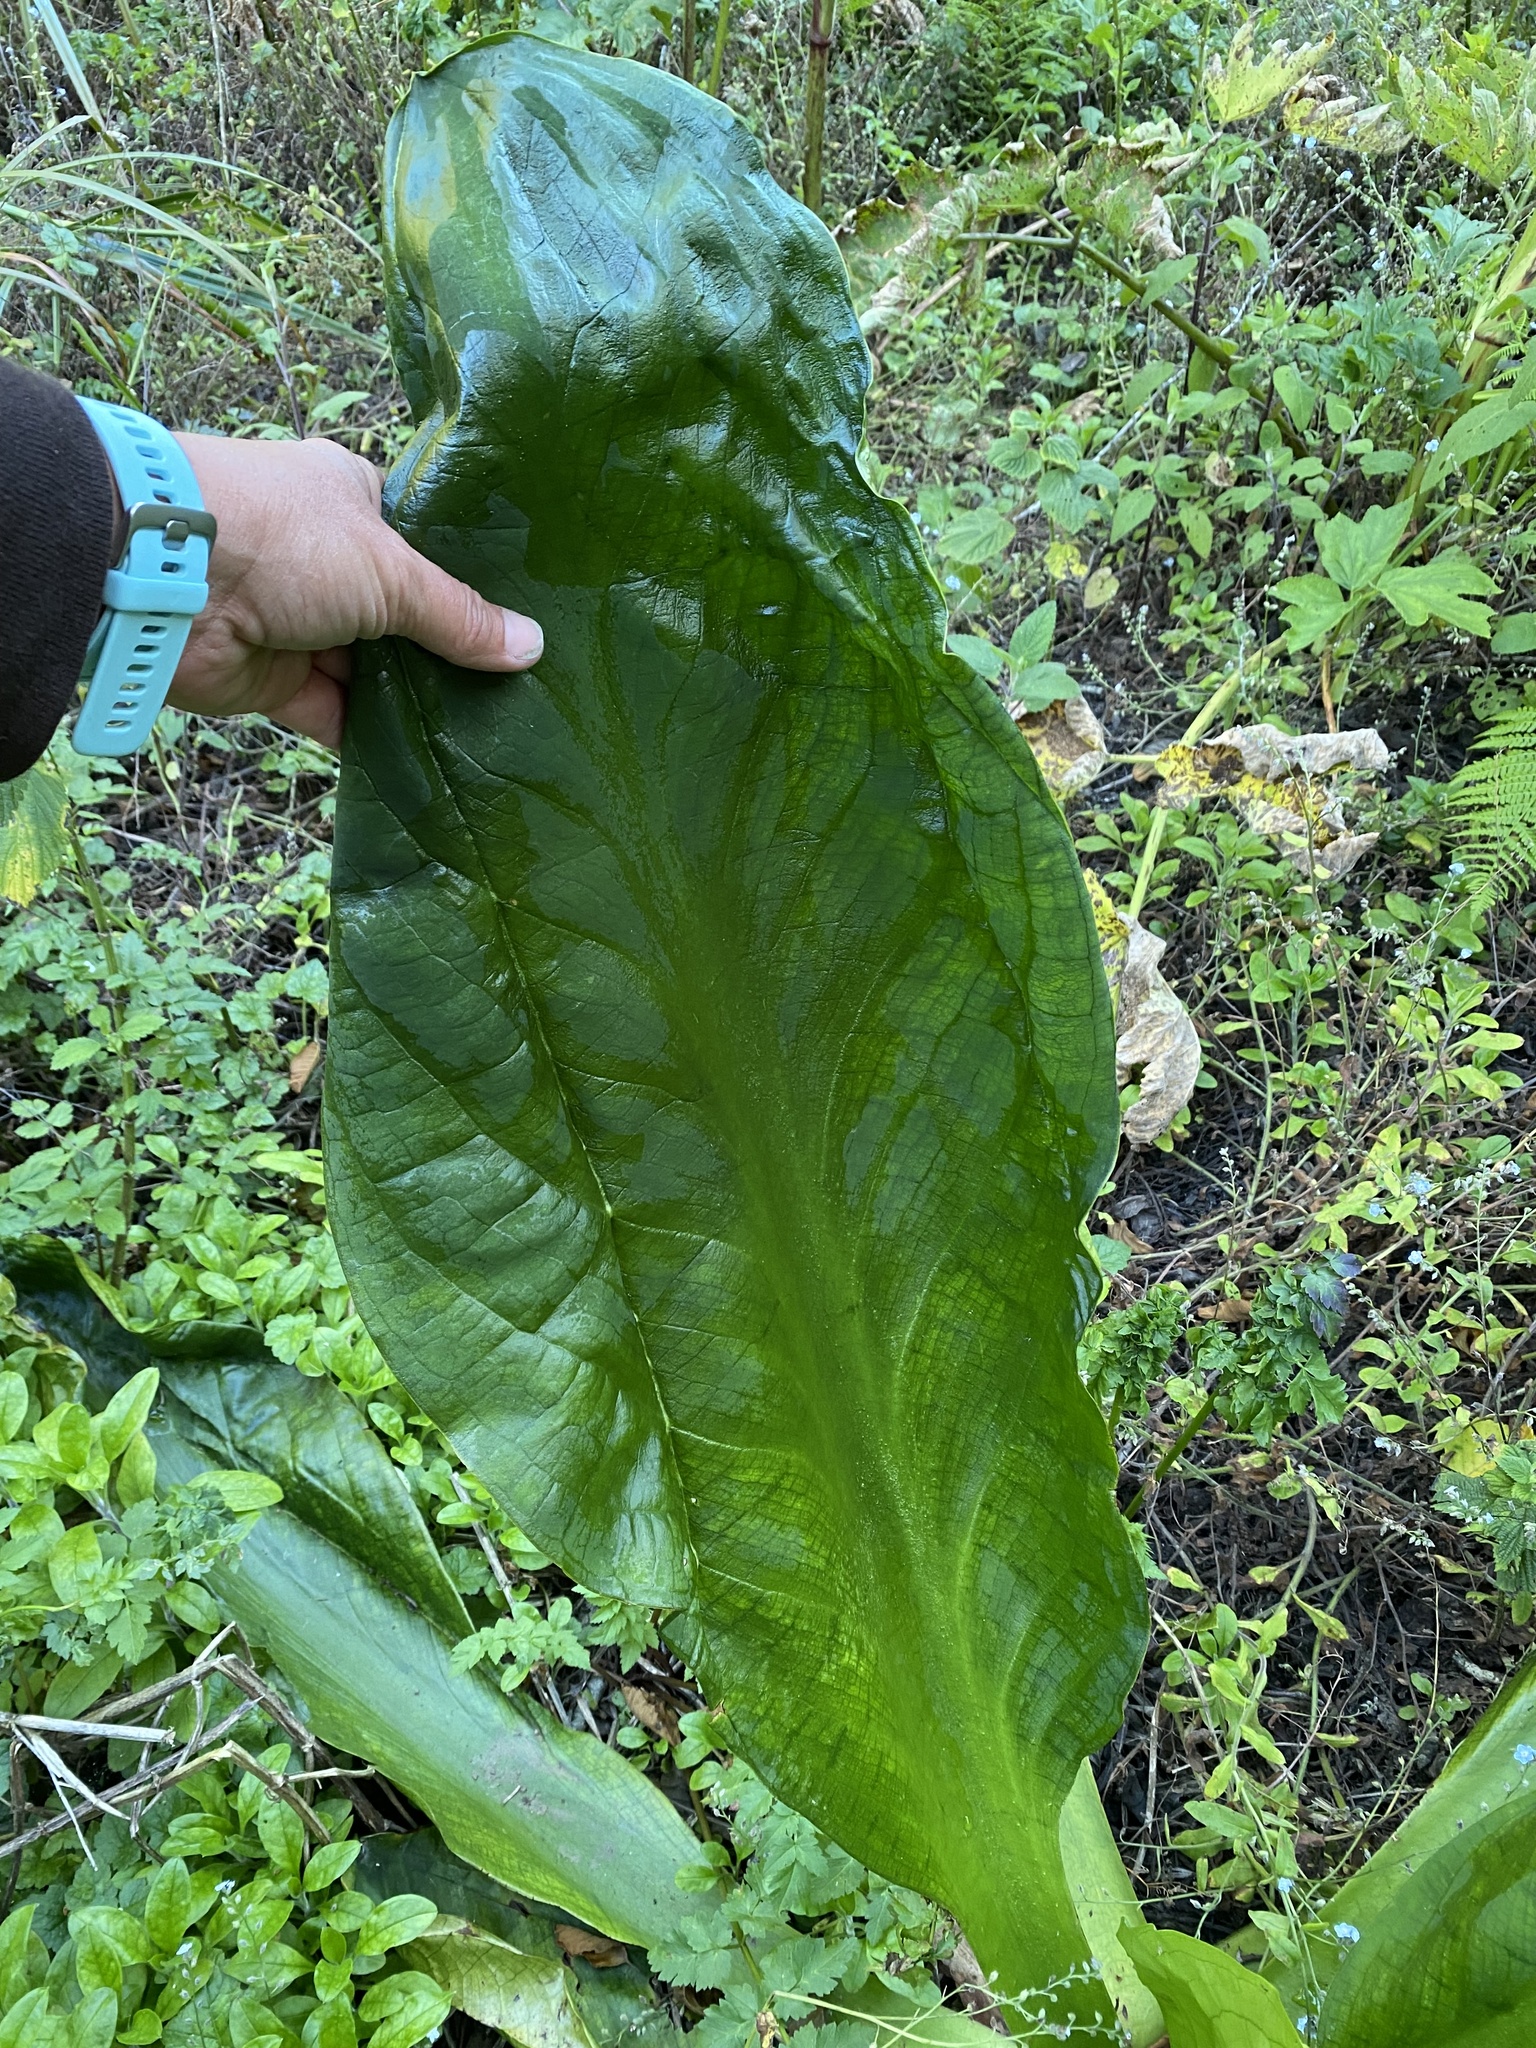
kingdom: Plantae
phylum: Tracheophyta
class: Liliopsida
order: Alismatales
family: Araceae
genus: Lysichiton
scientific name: Lysichiton americanus
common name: American skunk cabbage
